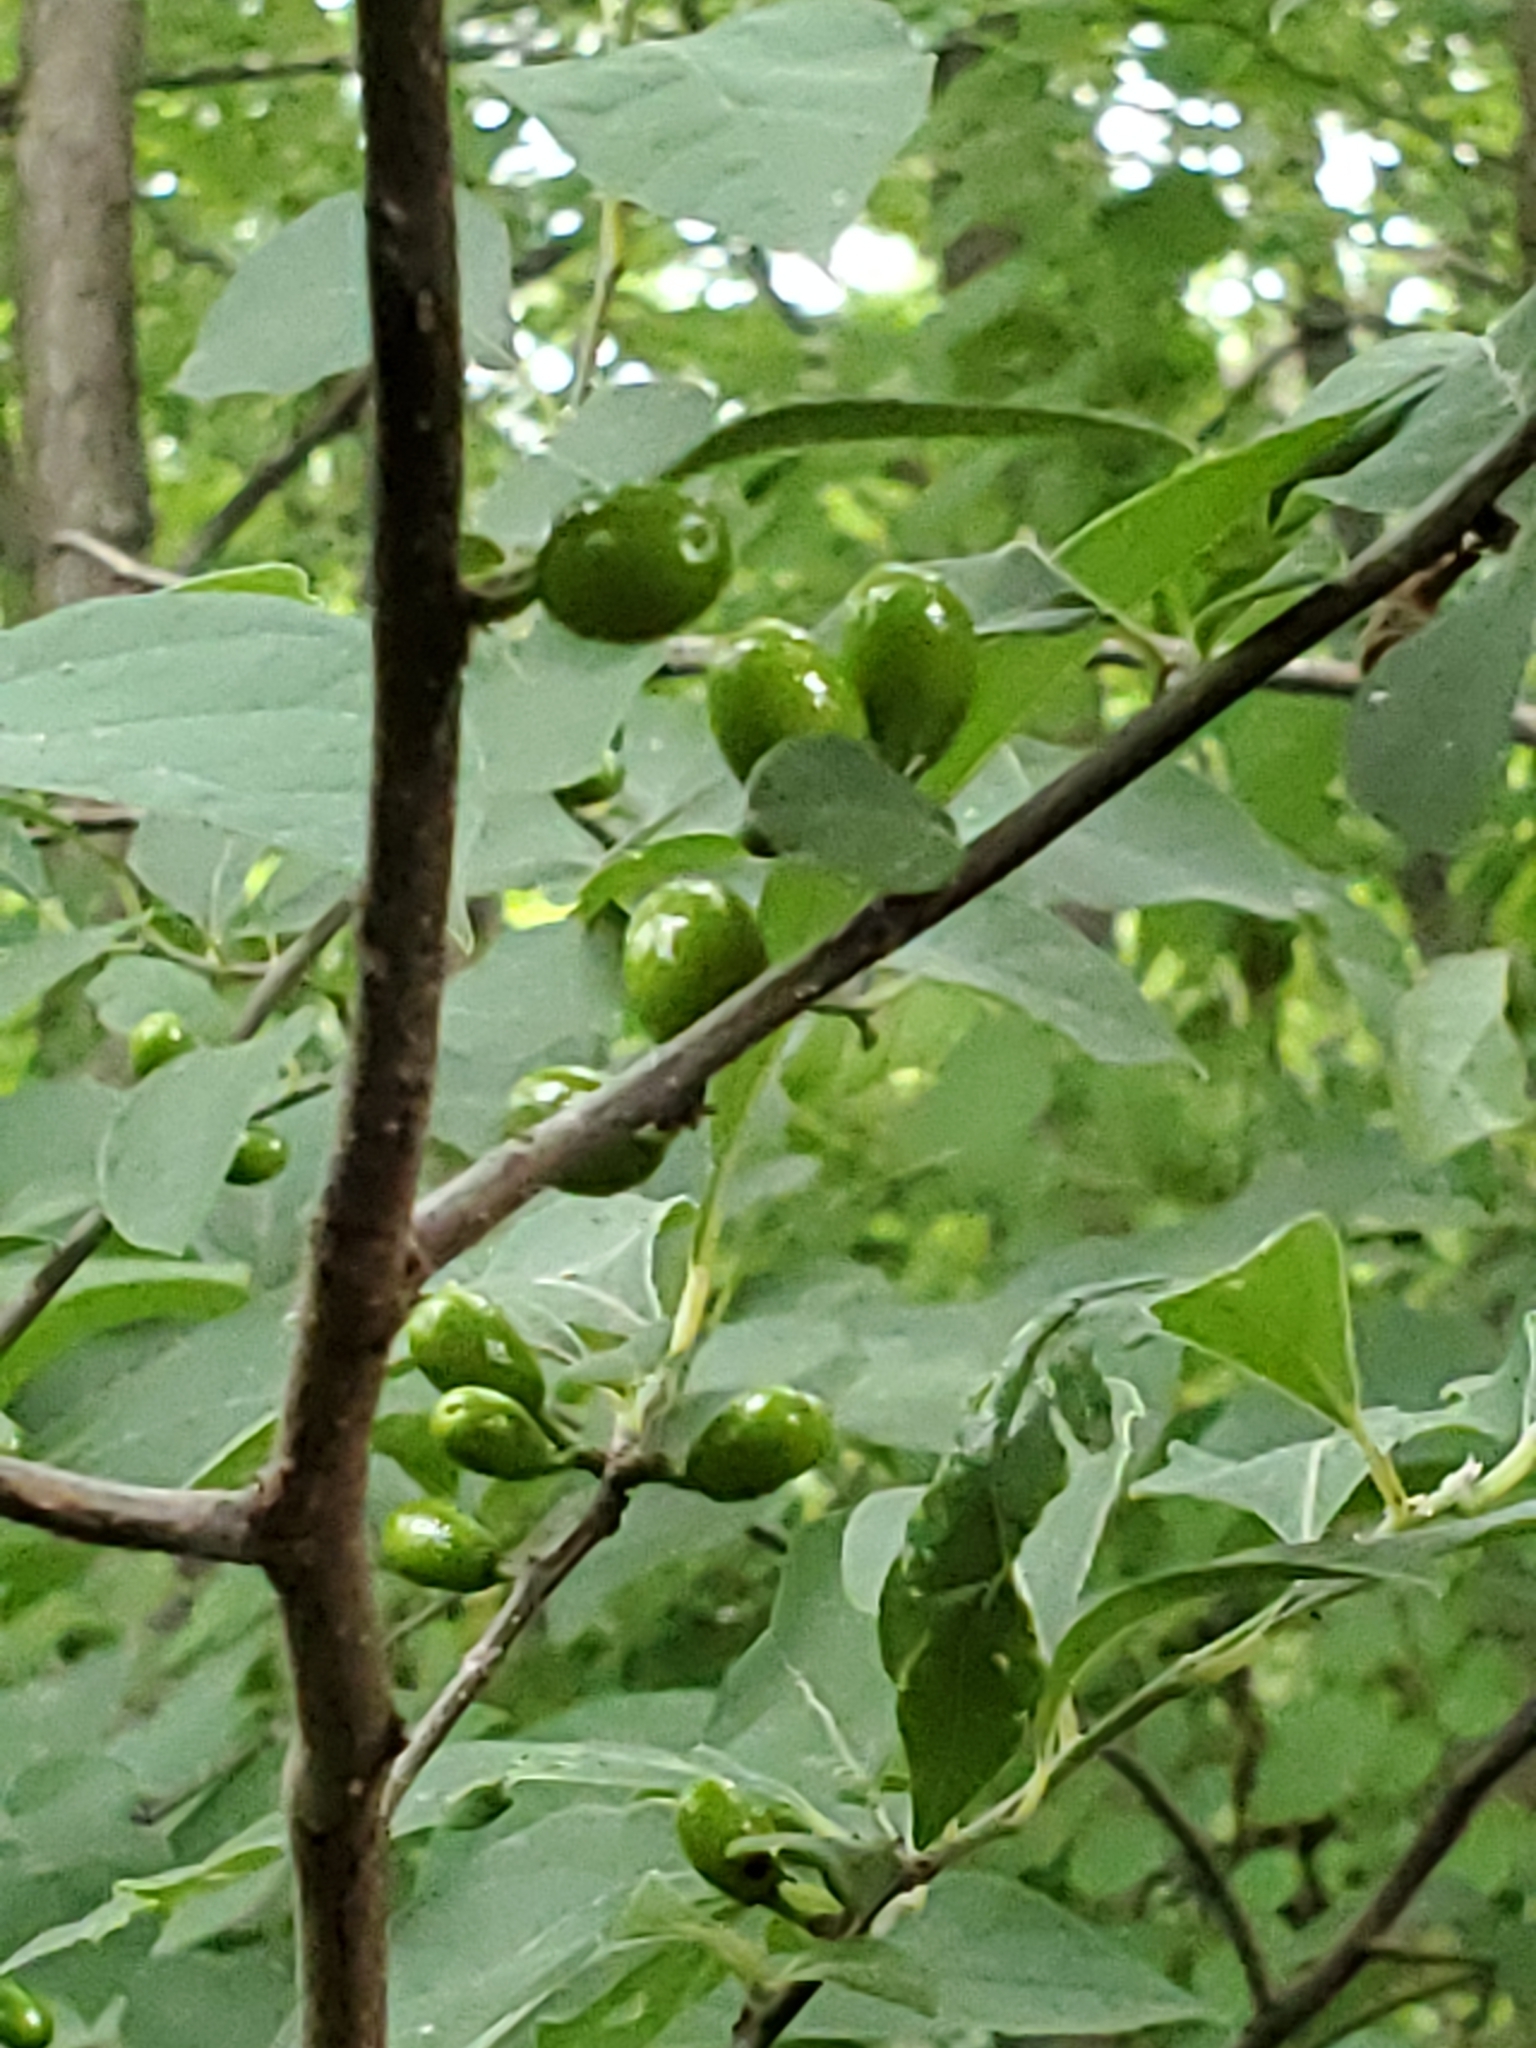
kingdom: Plantae
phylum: Tracheophyta
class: Magnoliopsida
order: Laurales
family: Lauraceae
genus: Lindera
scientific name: Lindera benzoin
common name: Spicebush
